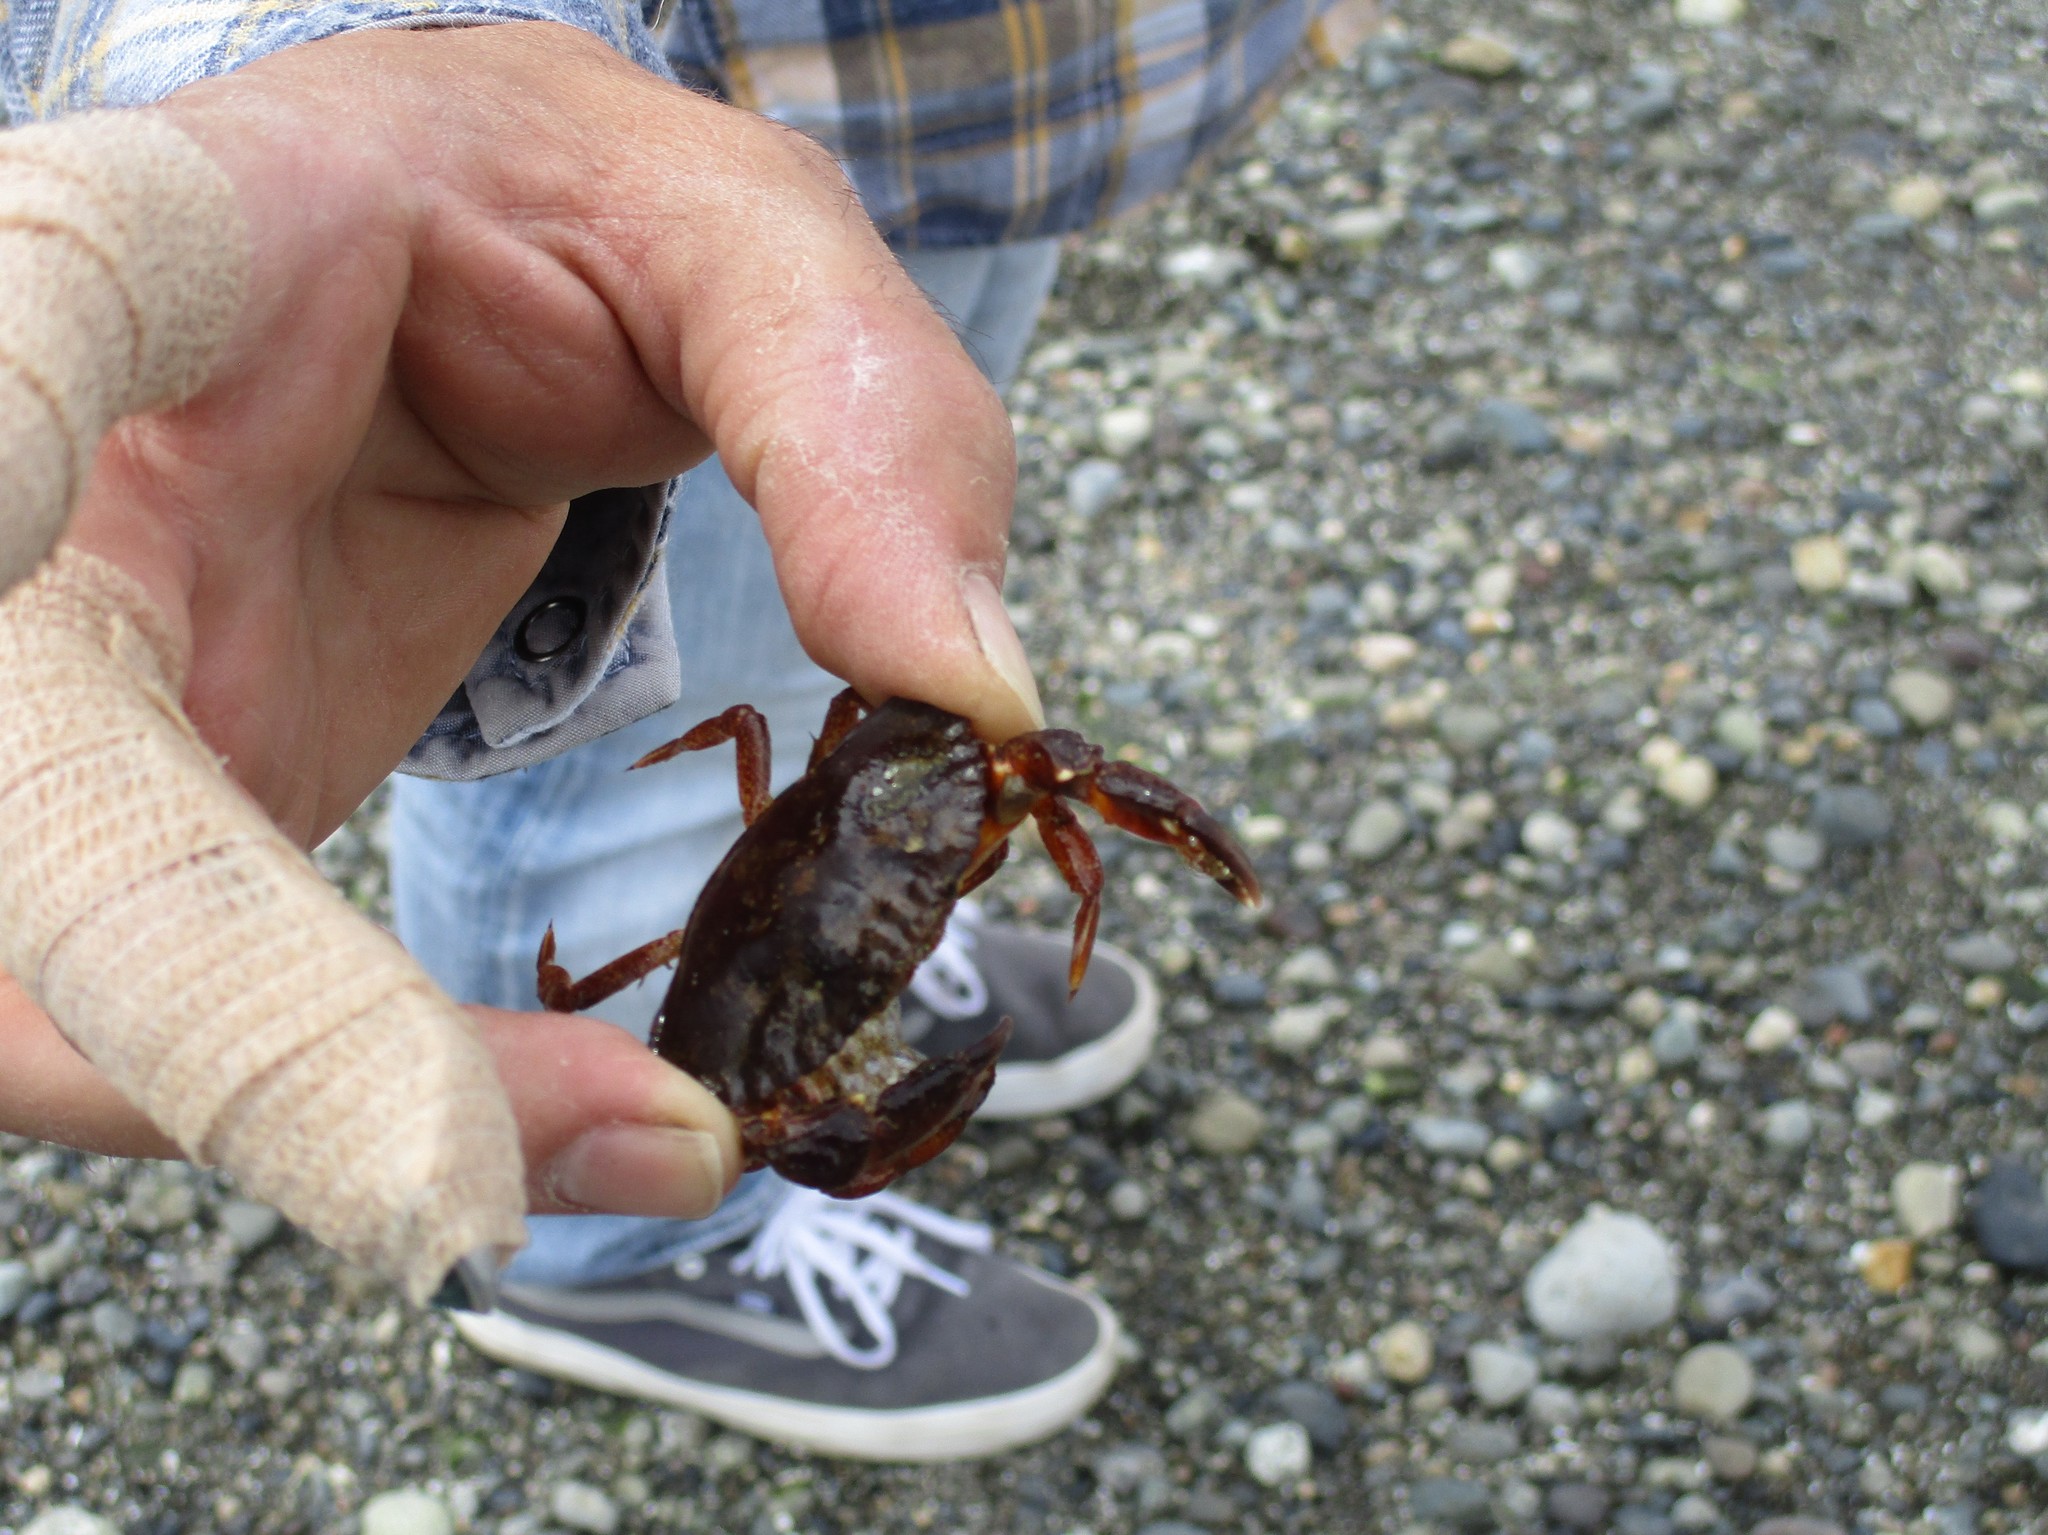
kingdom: Animalia
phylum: Arthropoda
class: Malacostraca
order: Decapoda
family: Cancridae
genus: Cancer
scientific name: Cancer productus
